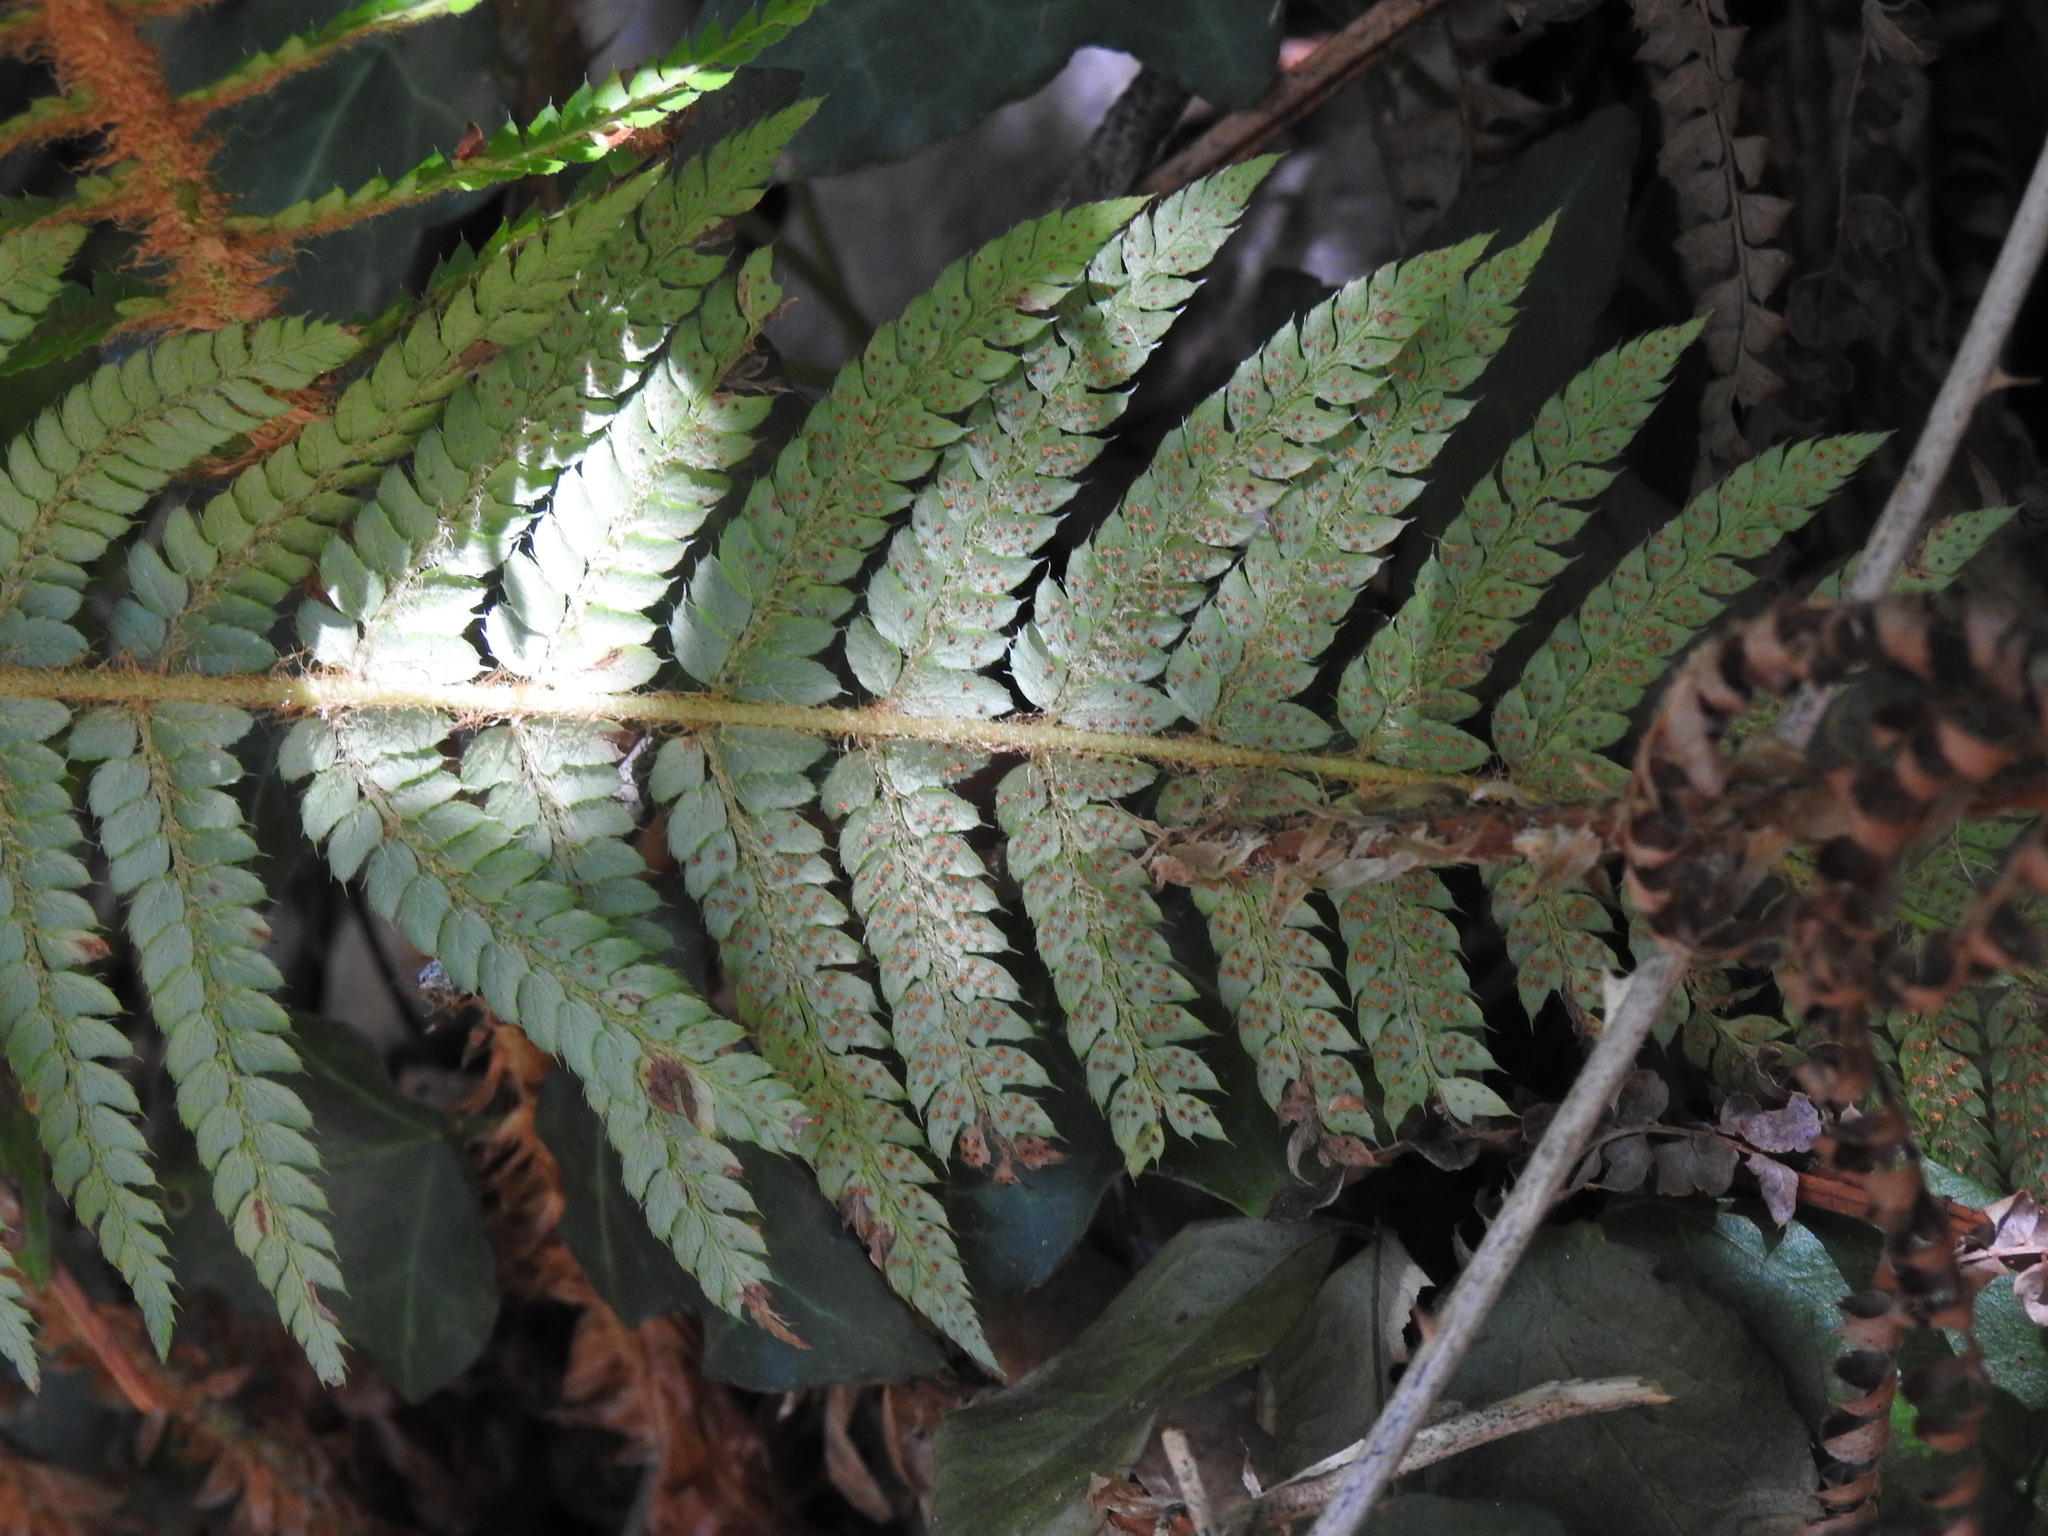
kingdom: Plantae
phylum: Tracheophyta
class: Polypodiopsida
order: Polypodiales
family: Dryopteridaceae
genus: Polystichum
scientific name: Polystichum setiferum
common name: Soft shield-fern
